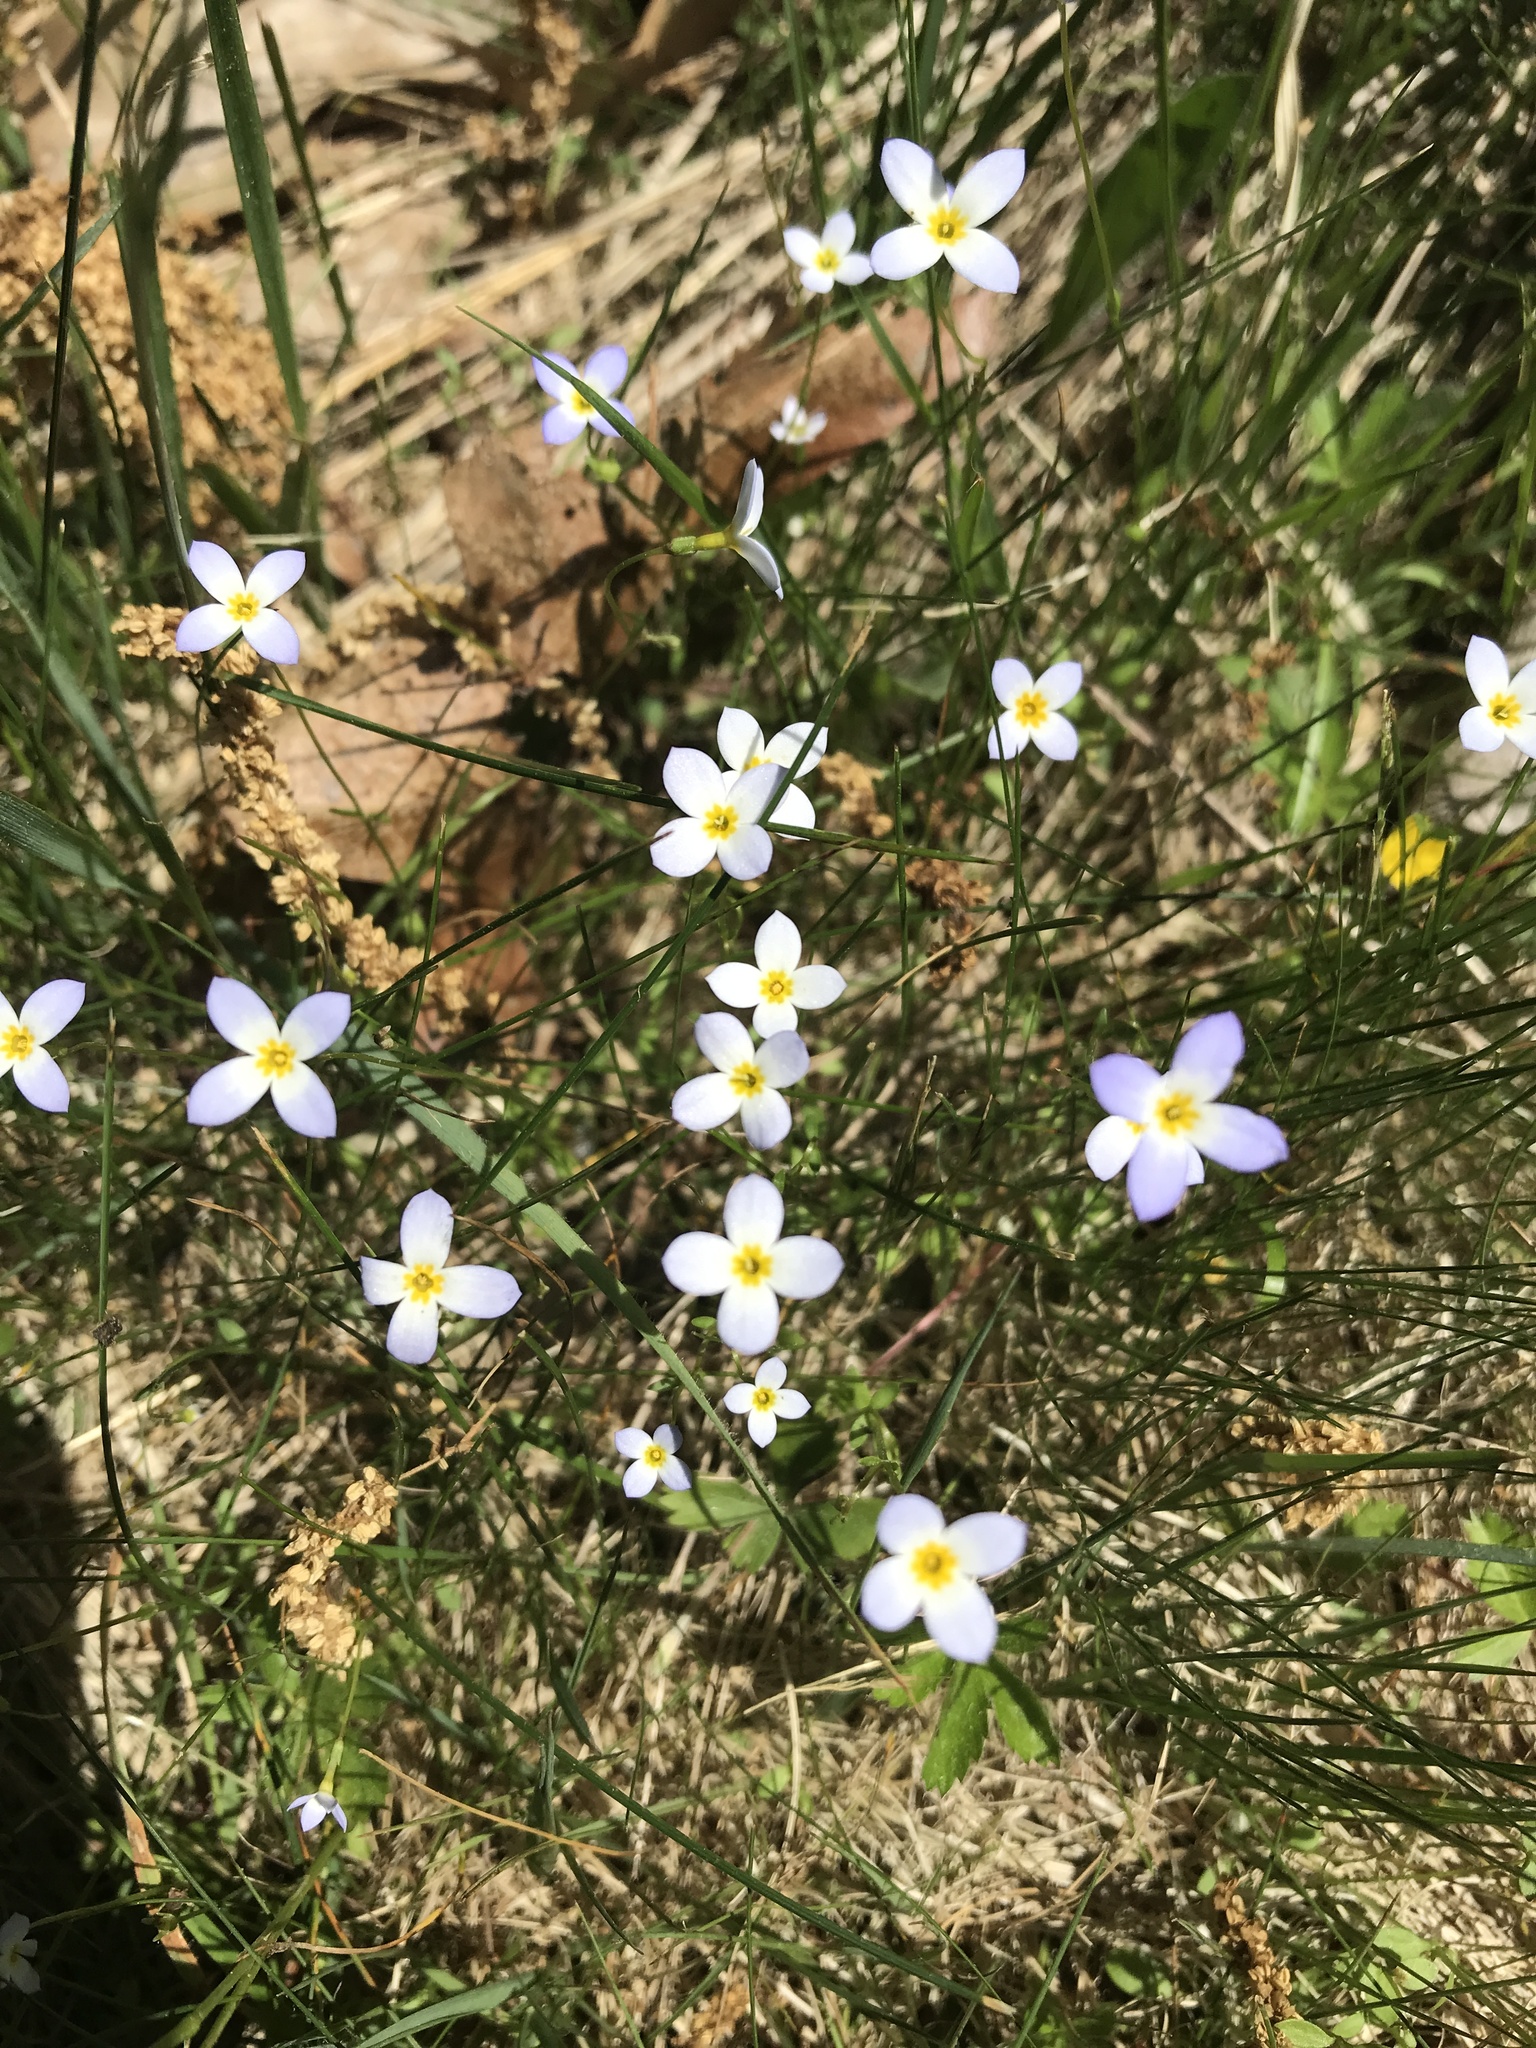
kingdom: Plantae
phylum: Tracheophyta
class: Magnoliopsida
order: Gentianales
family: Rubiaceae
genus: Houstonia
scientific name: Houstonia caerulea
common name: Bluets
